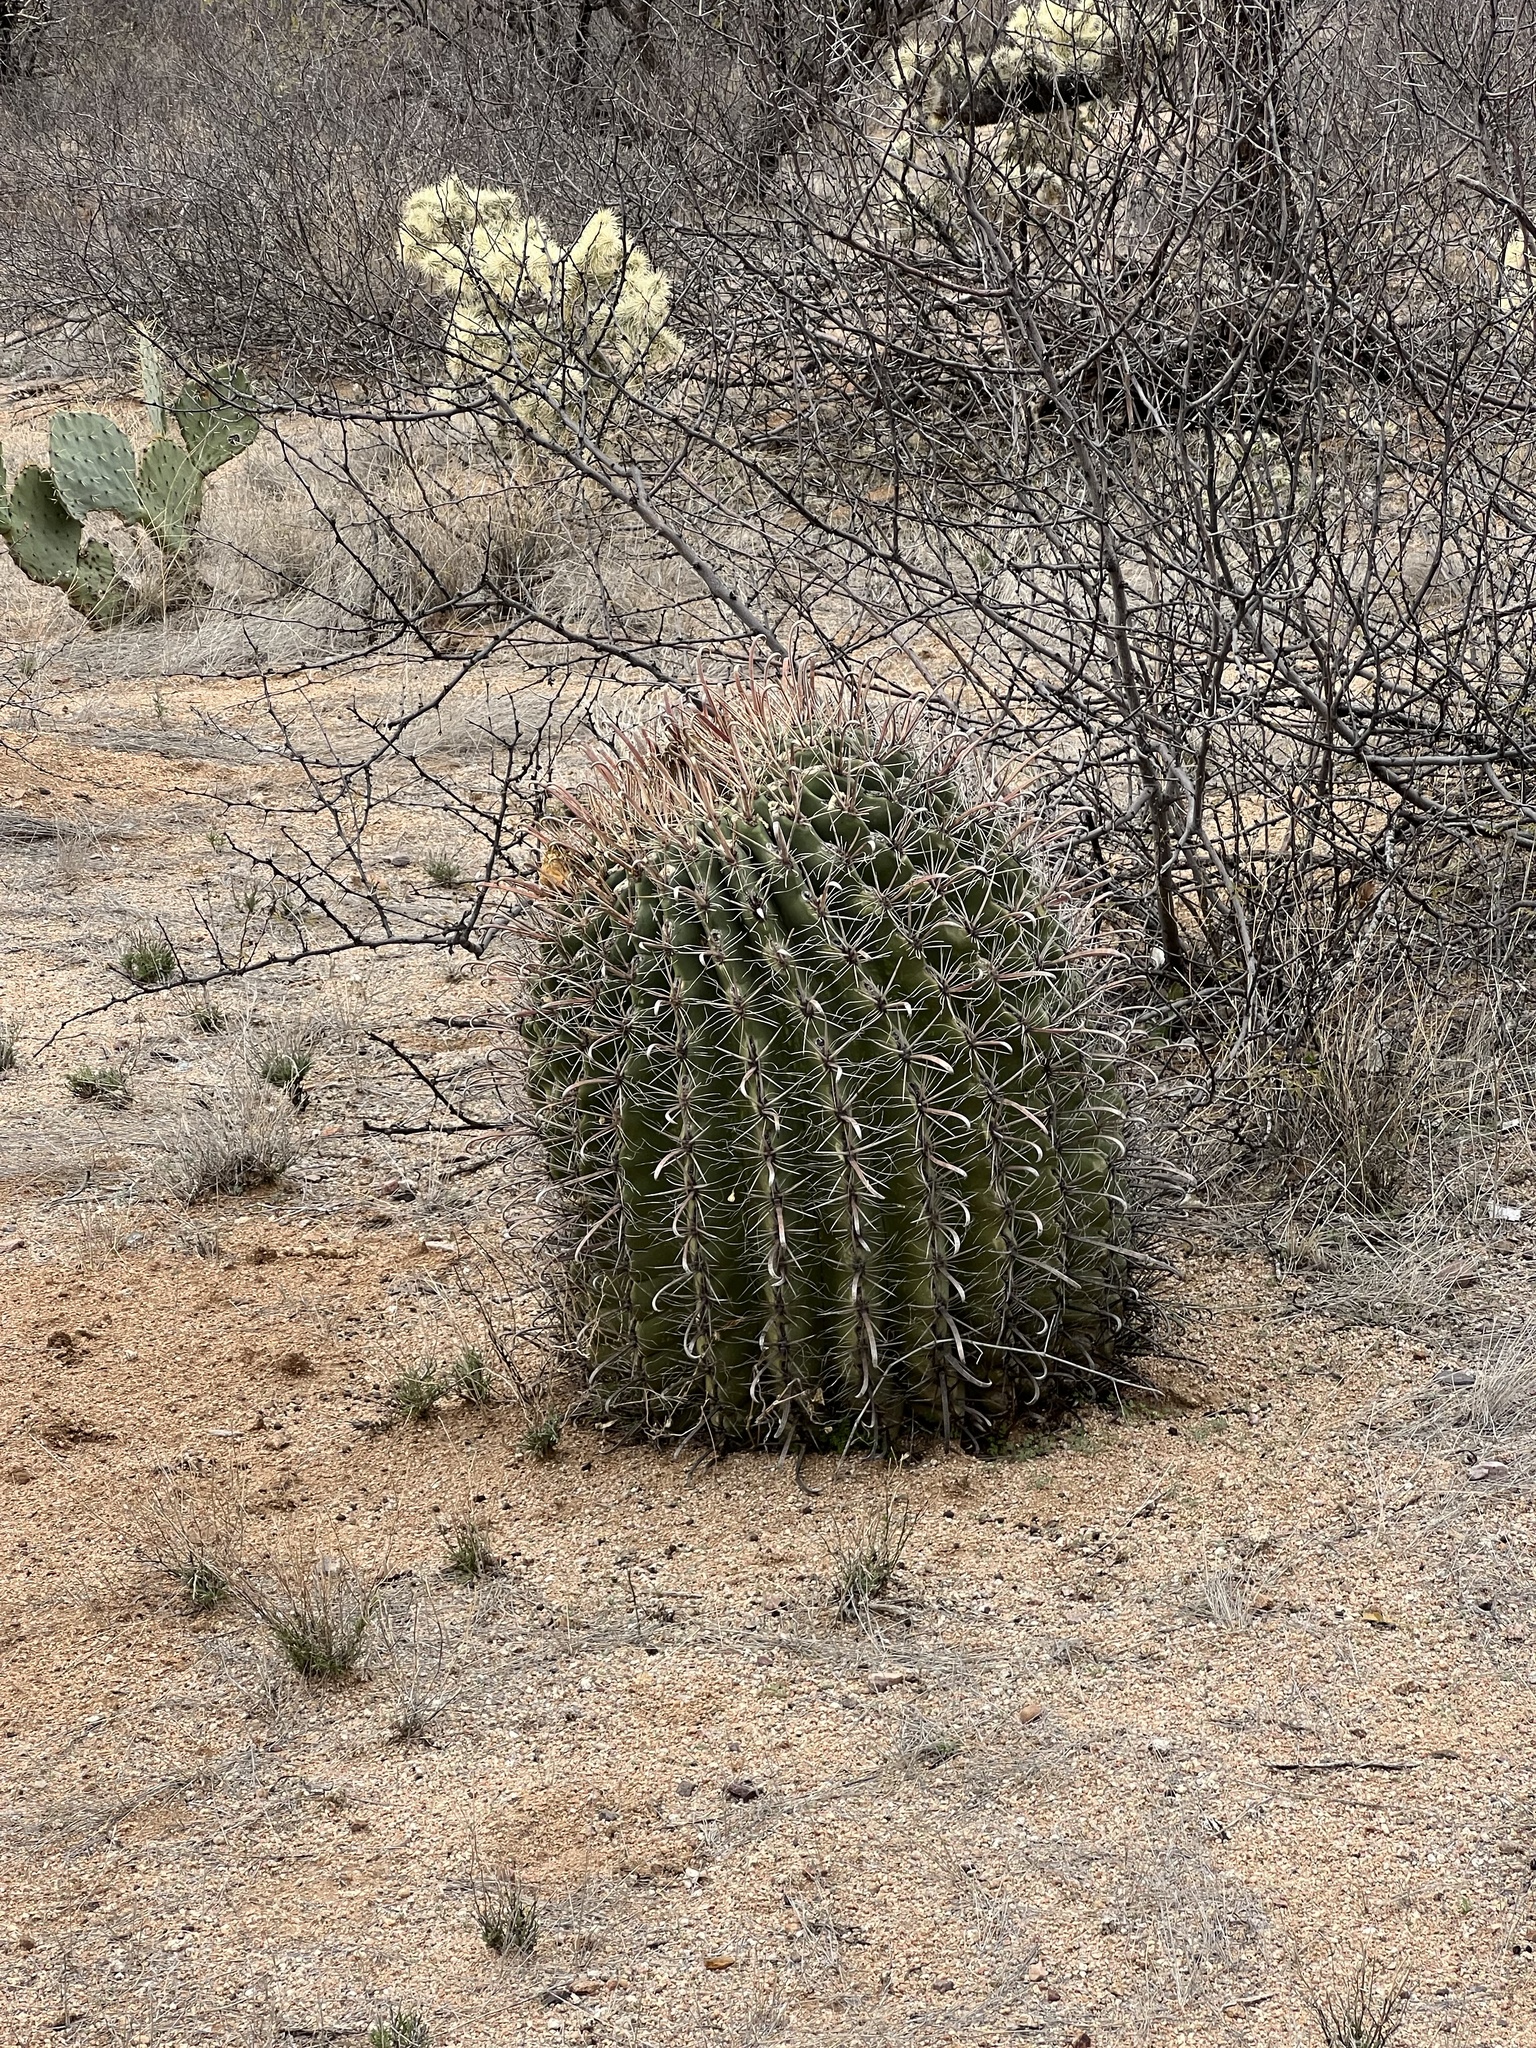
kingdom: Plantae
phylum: Tracheophyta
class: Magnoliopsida
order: Caryophyllales
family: Cactaceae
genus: Ferocactus
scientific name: Ferocactus wislizeni
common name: Candy barrel cactus
